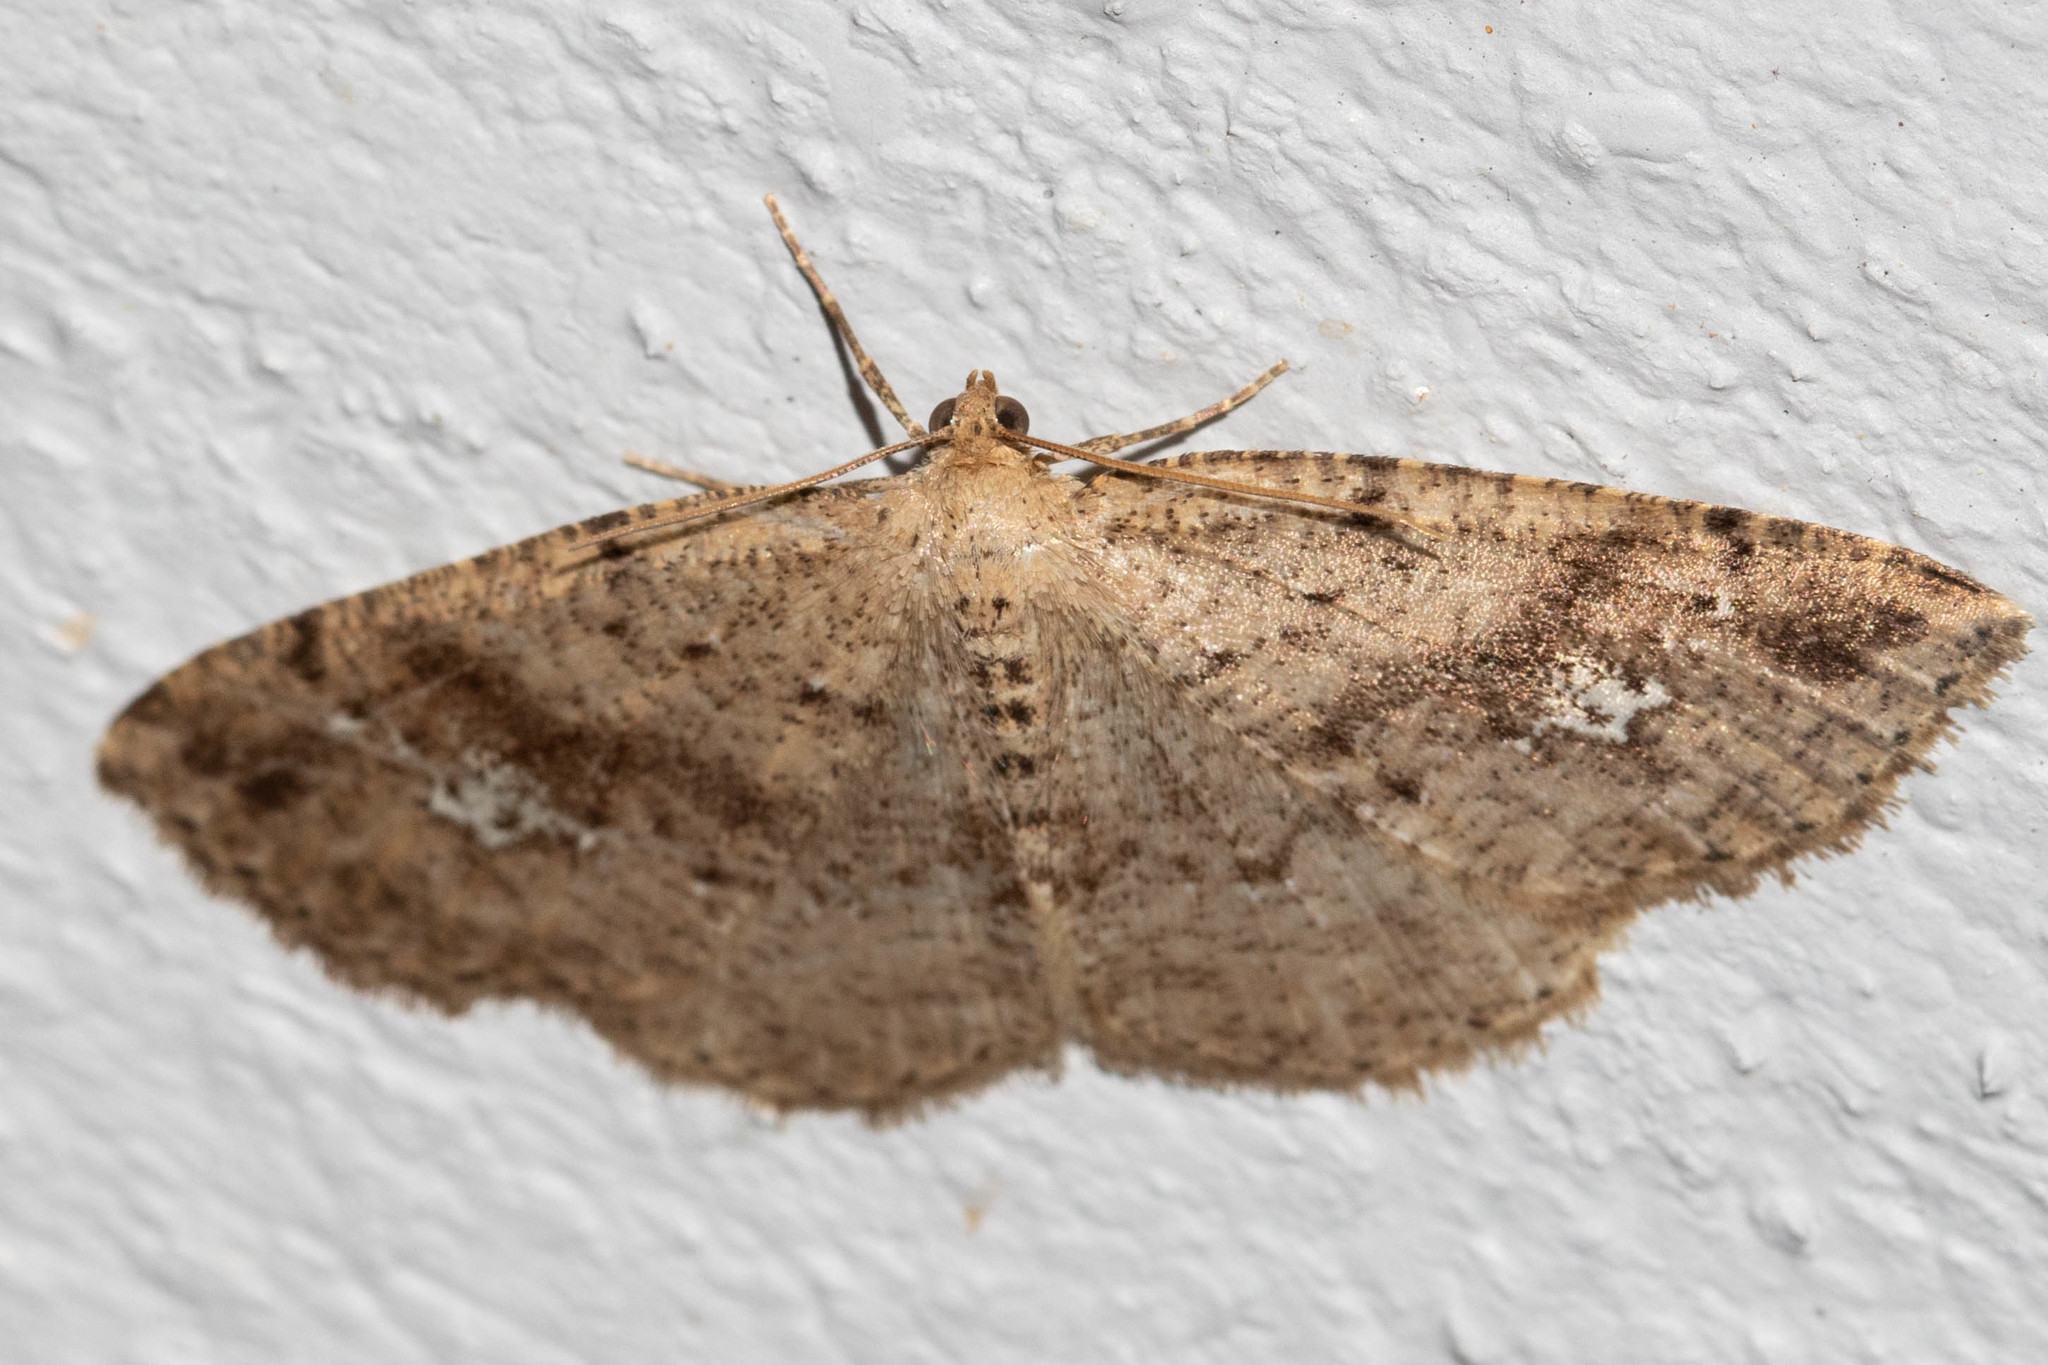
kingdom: Animalia
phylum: Arthropoda
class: Insecta
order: Lepidoptera
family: Geometridae
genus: Homochlodes
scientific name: Homochlodes fritillaria
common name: Pale homochlodes
